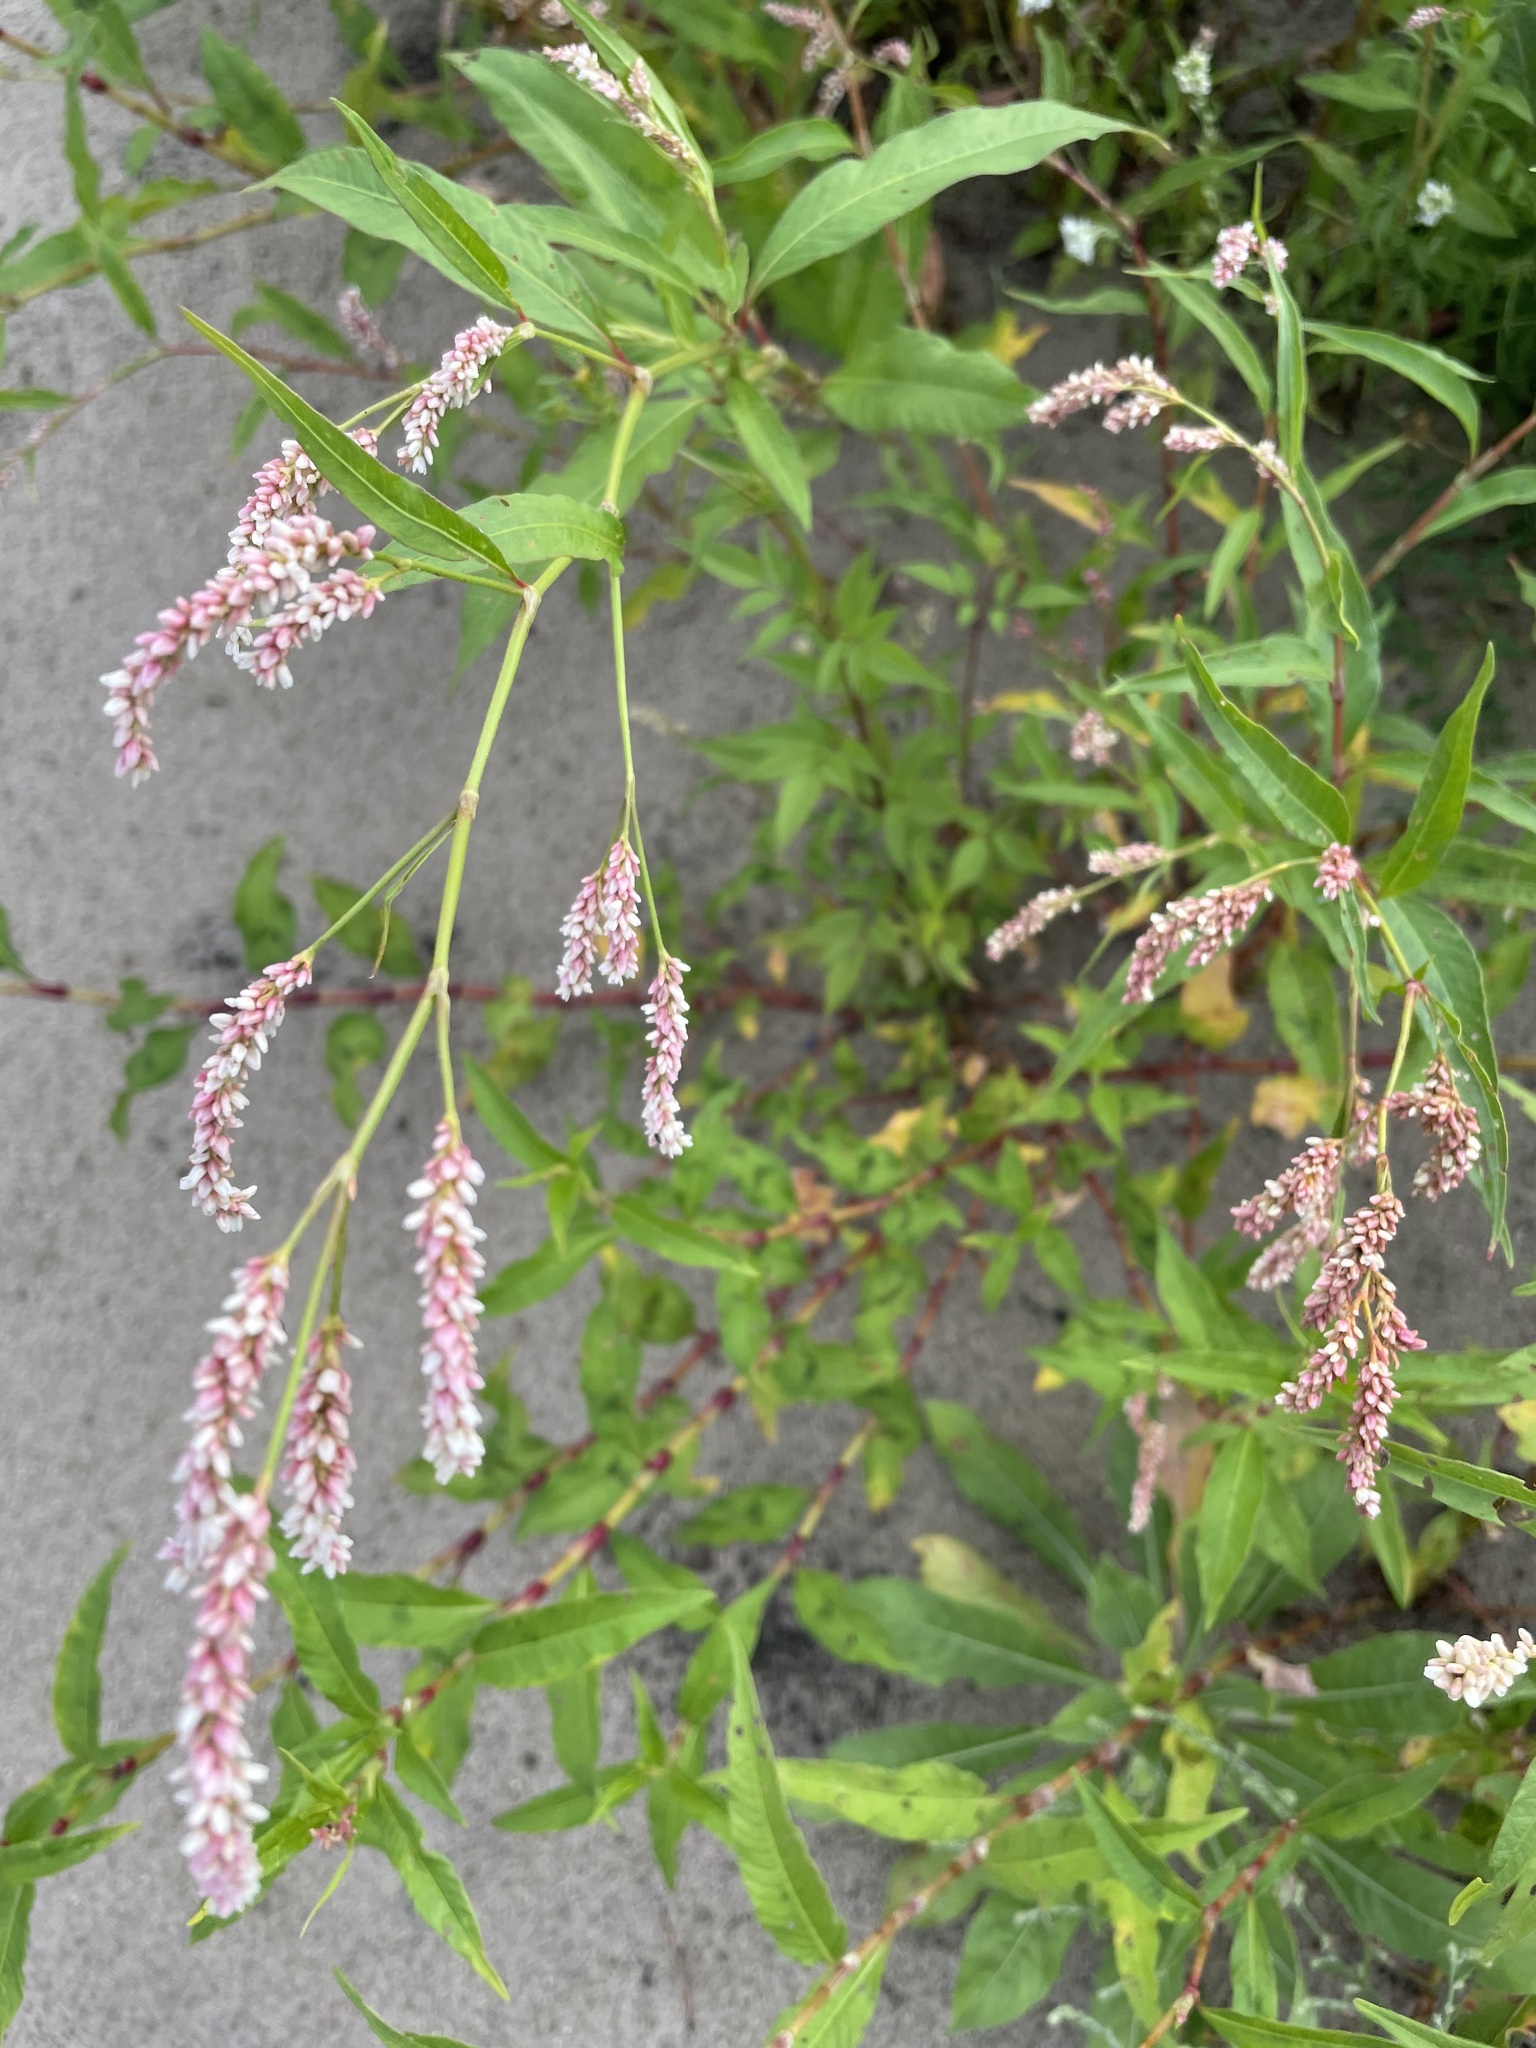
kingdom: Plantae
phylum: Tracheophyta
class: Magnoliopsida
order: Caryophyllales
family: Polygonaceae
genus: Persicaria
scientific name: Persicaria lapathifolia
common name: Curlytop knotweed
